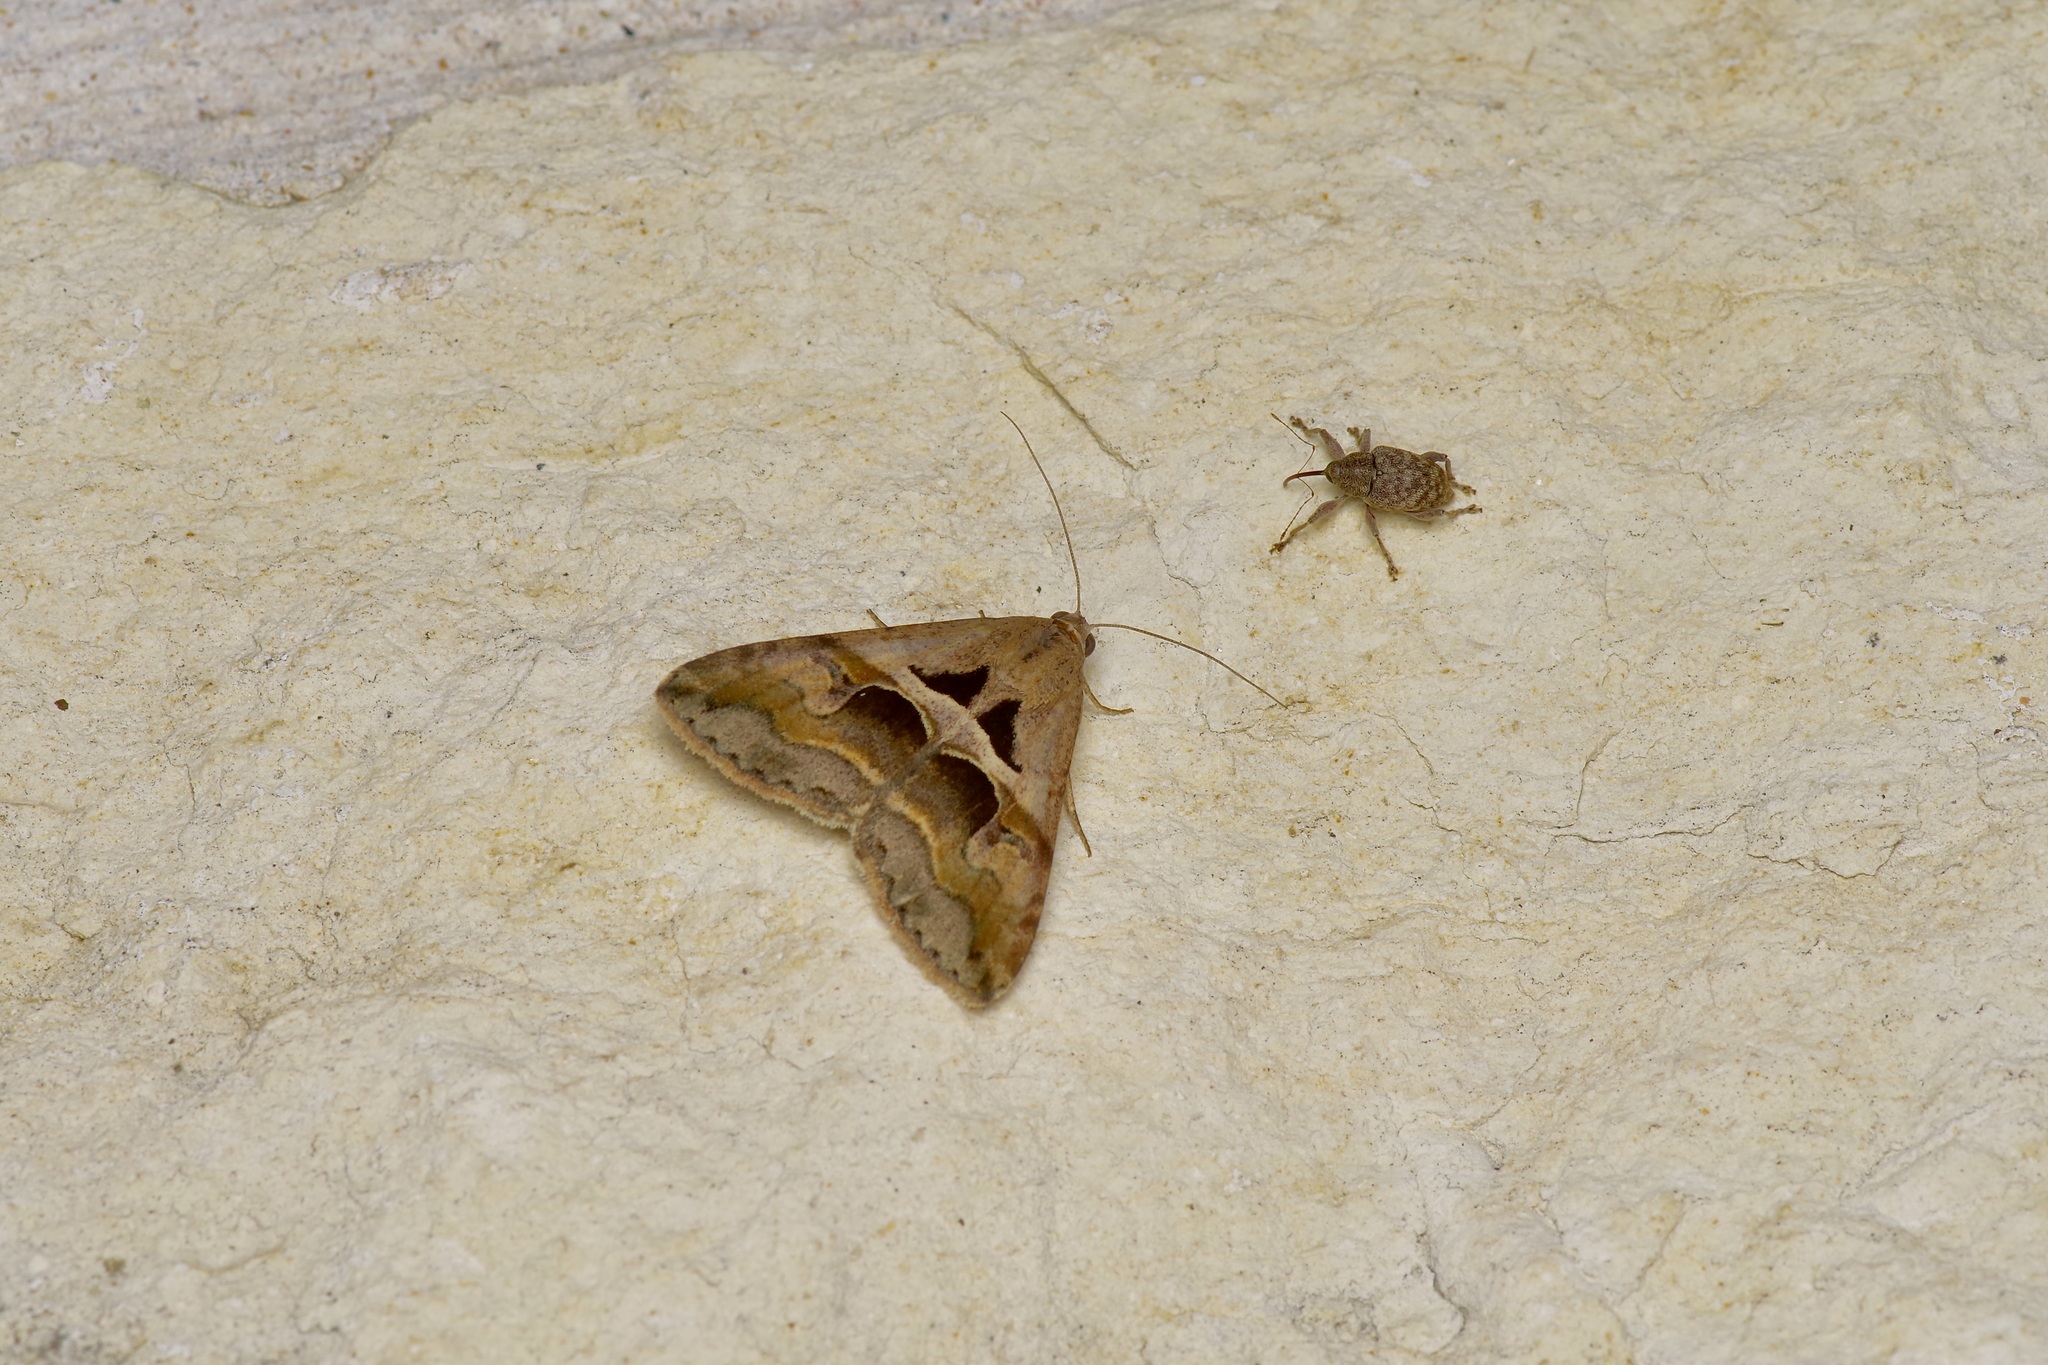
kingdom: Animalia
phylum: Arthropoda
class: Insecta
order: Lepidoptera
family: Erebidae
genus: Melipotis
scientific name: Melipotis cellaris
